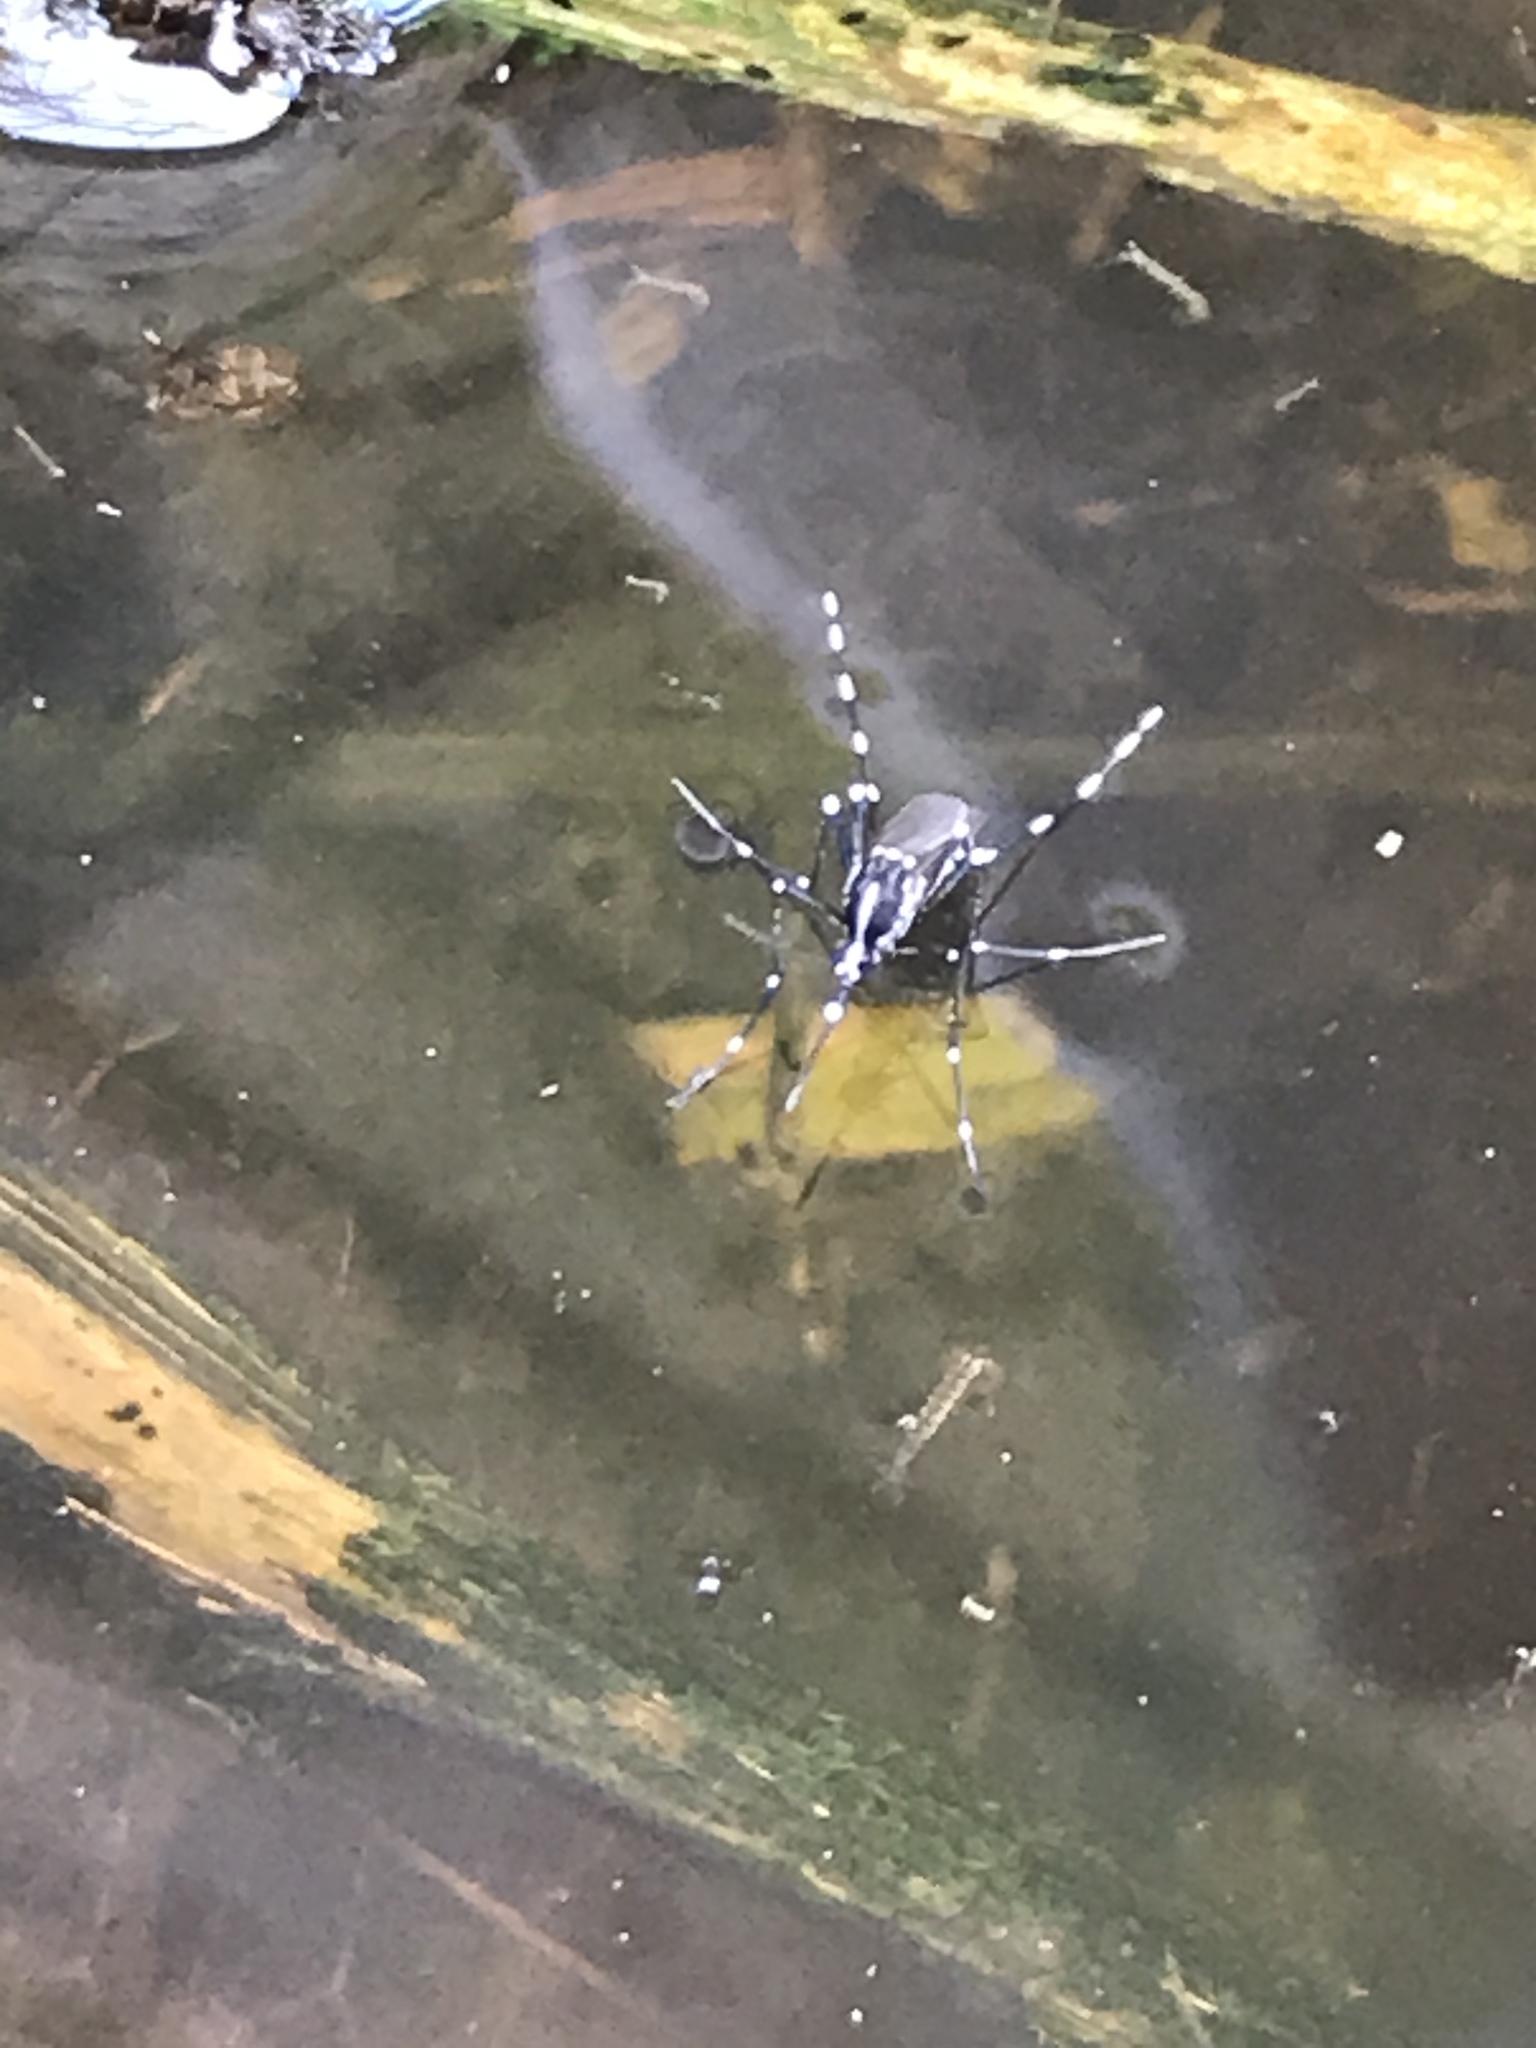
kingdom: Animalia
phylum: Arthropoda
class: Insecta
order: Diptera
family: Culicidae
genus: Aedes
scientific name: Aedes albopictus
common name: Tiger mosquito
